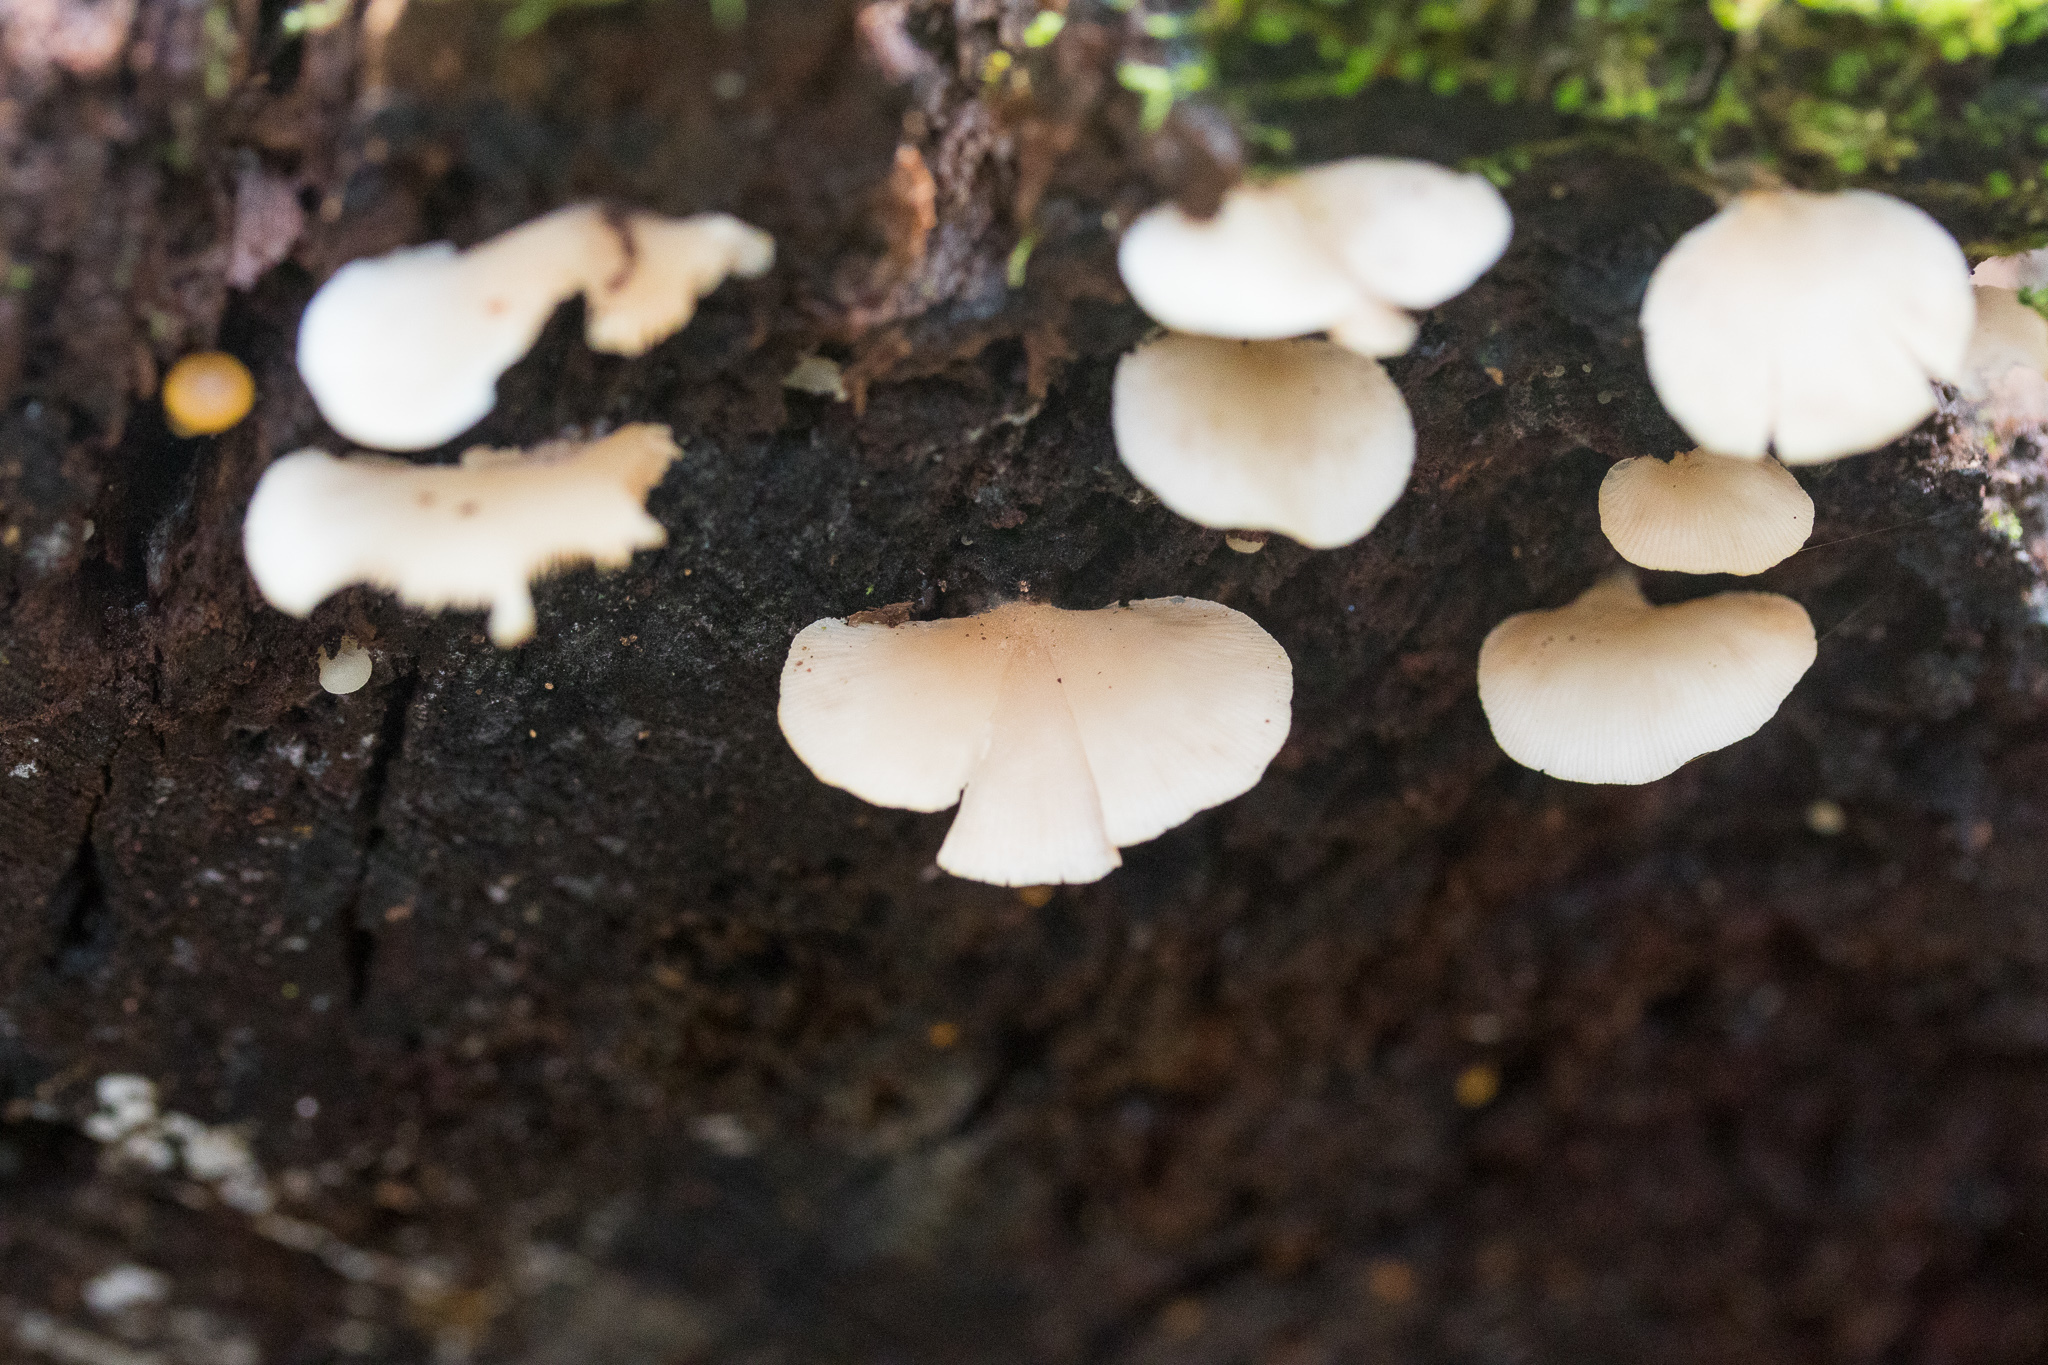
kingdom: Fungi
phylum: Basidiomycota
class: Agaricomycetes
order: Agaricales
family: Crepidotaceae
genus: Crepidotus
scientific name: Crepidotus applanatus
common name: Flat crep
